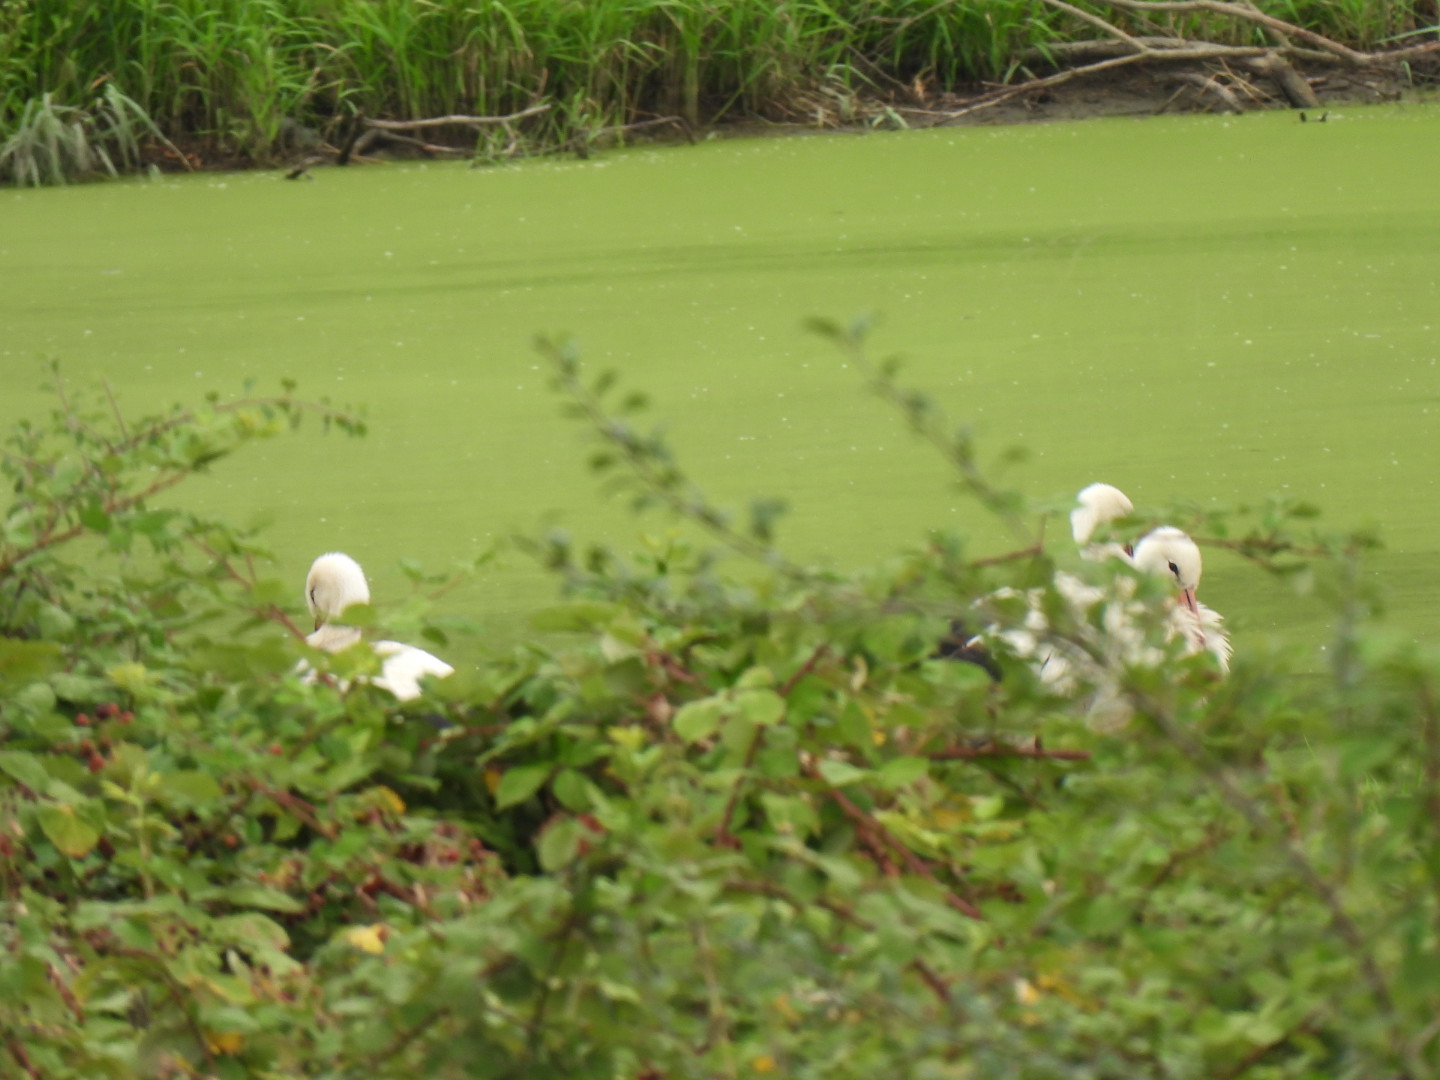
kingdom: Animalia
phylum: Chordata
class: Aves
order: Ciconiiformes
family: Ciconiidae
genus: Ciconia
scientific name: Ciconia ciconia
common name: White stork
